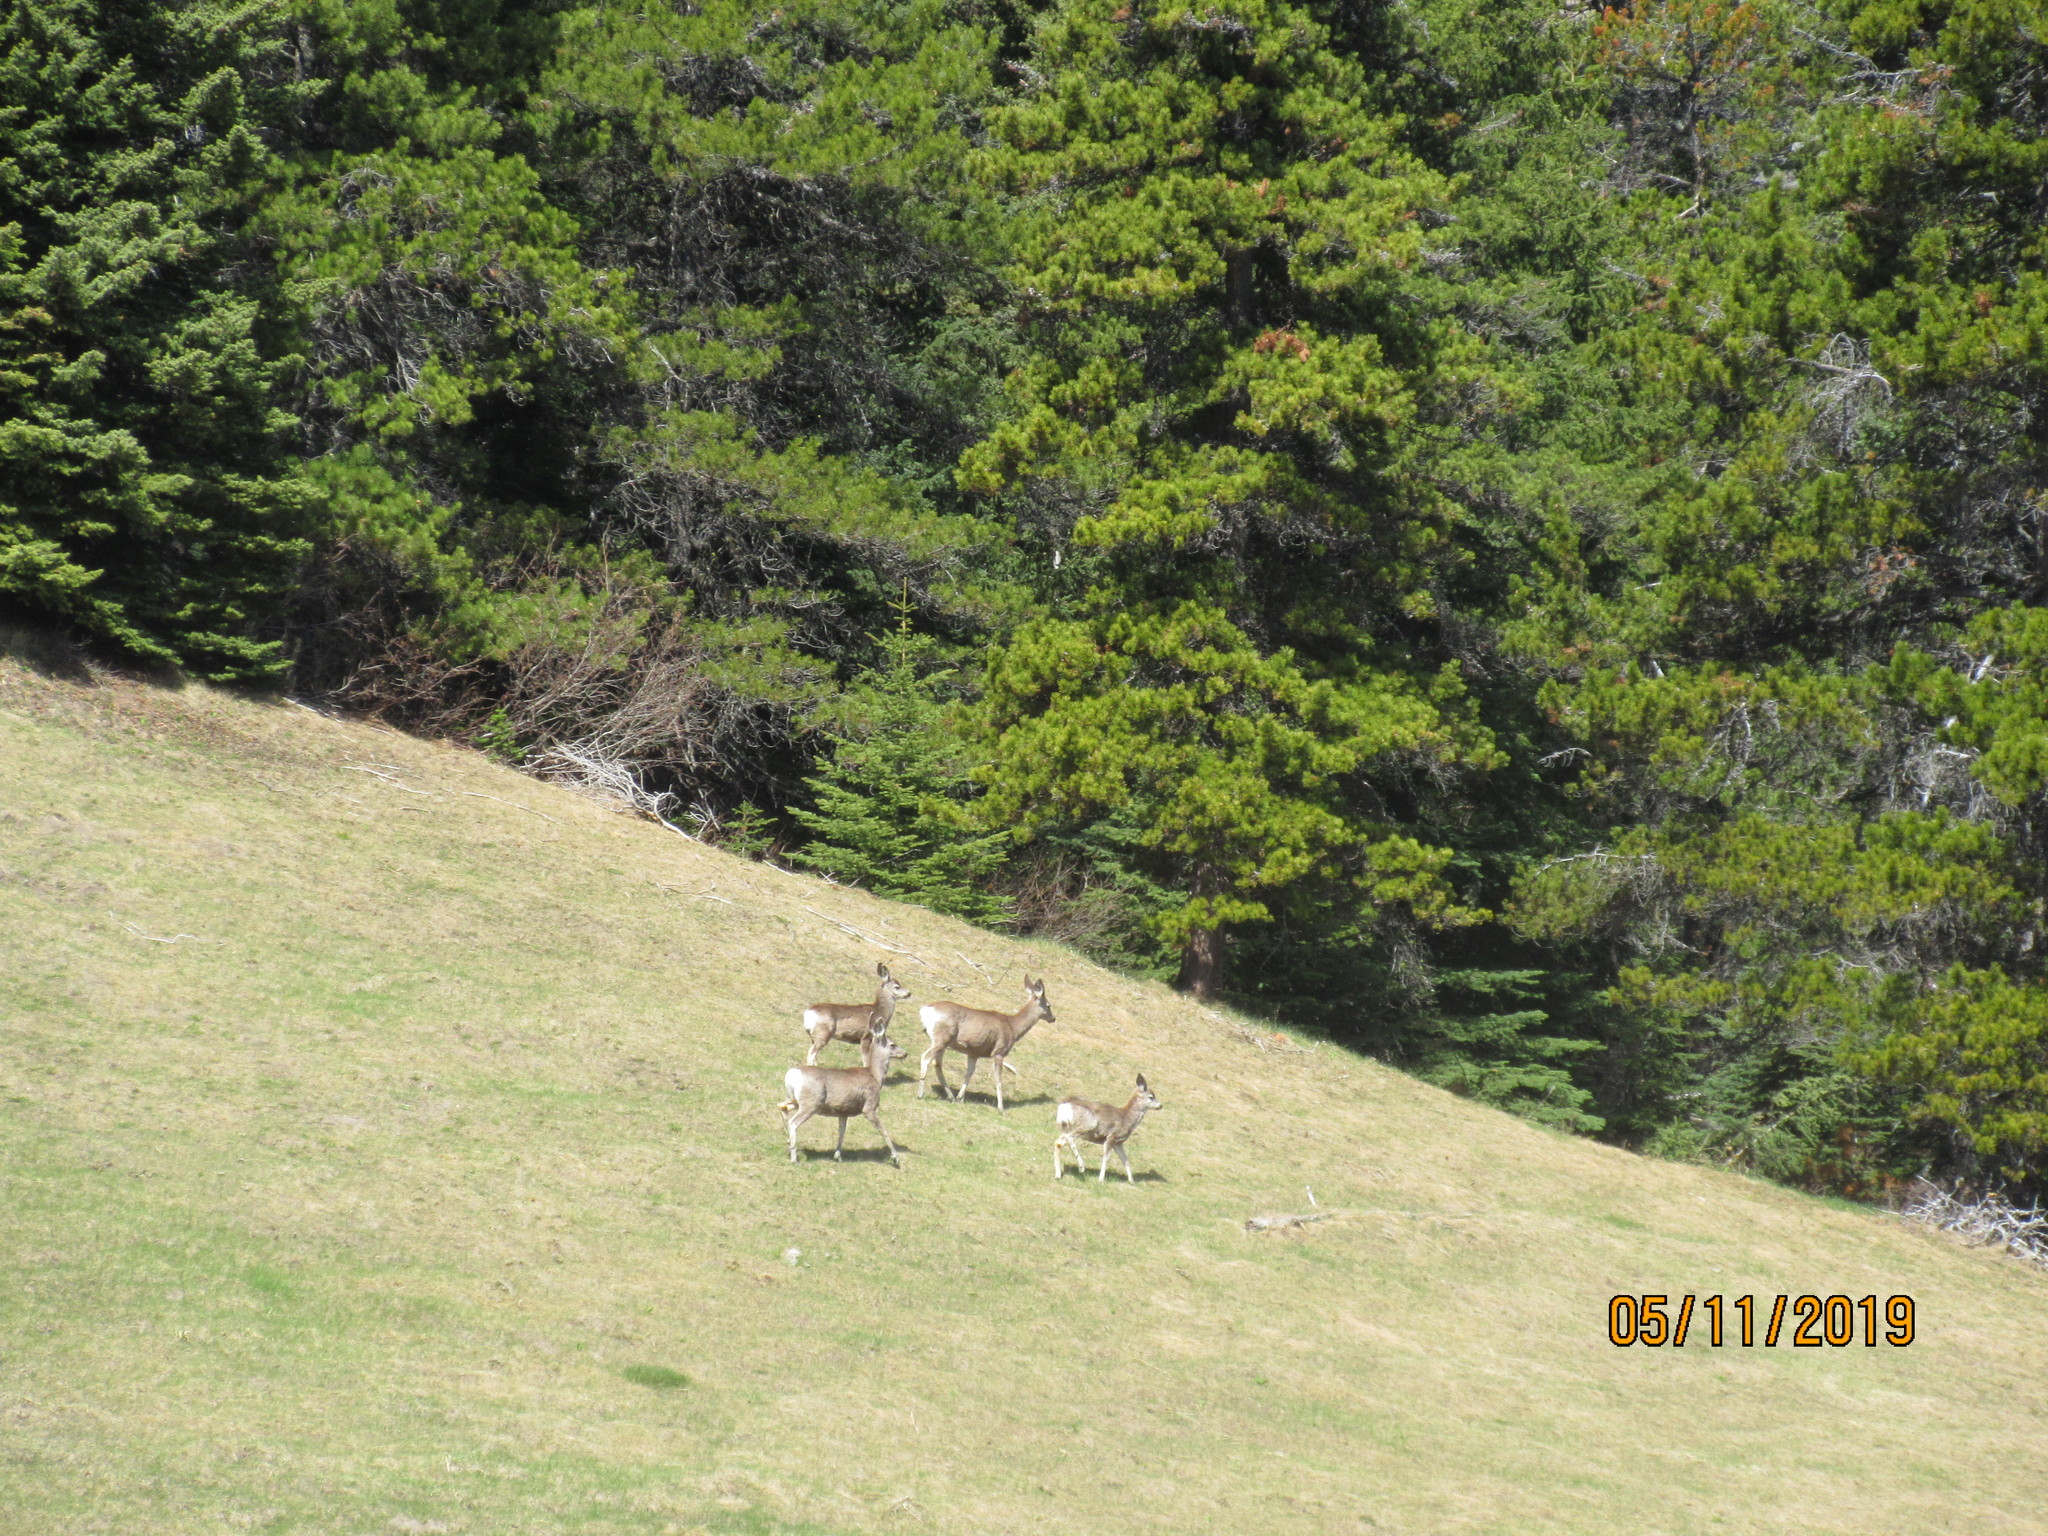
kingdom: Animalia
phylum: Chordata
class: Mammalia
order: Artiodactyla
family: Cervidae
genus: Odocoileus
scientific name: Odocoileus hemionus
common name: Mule deer
